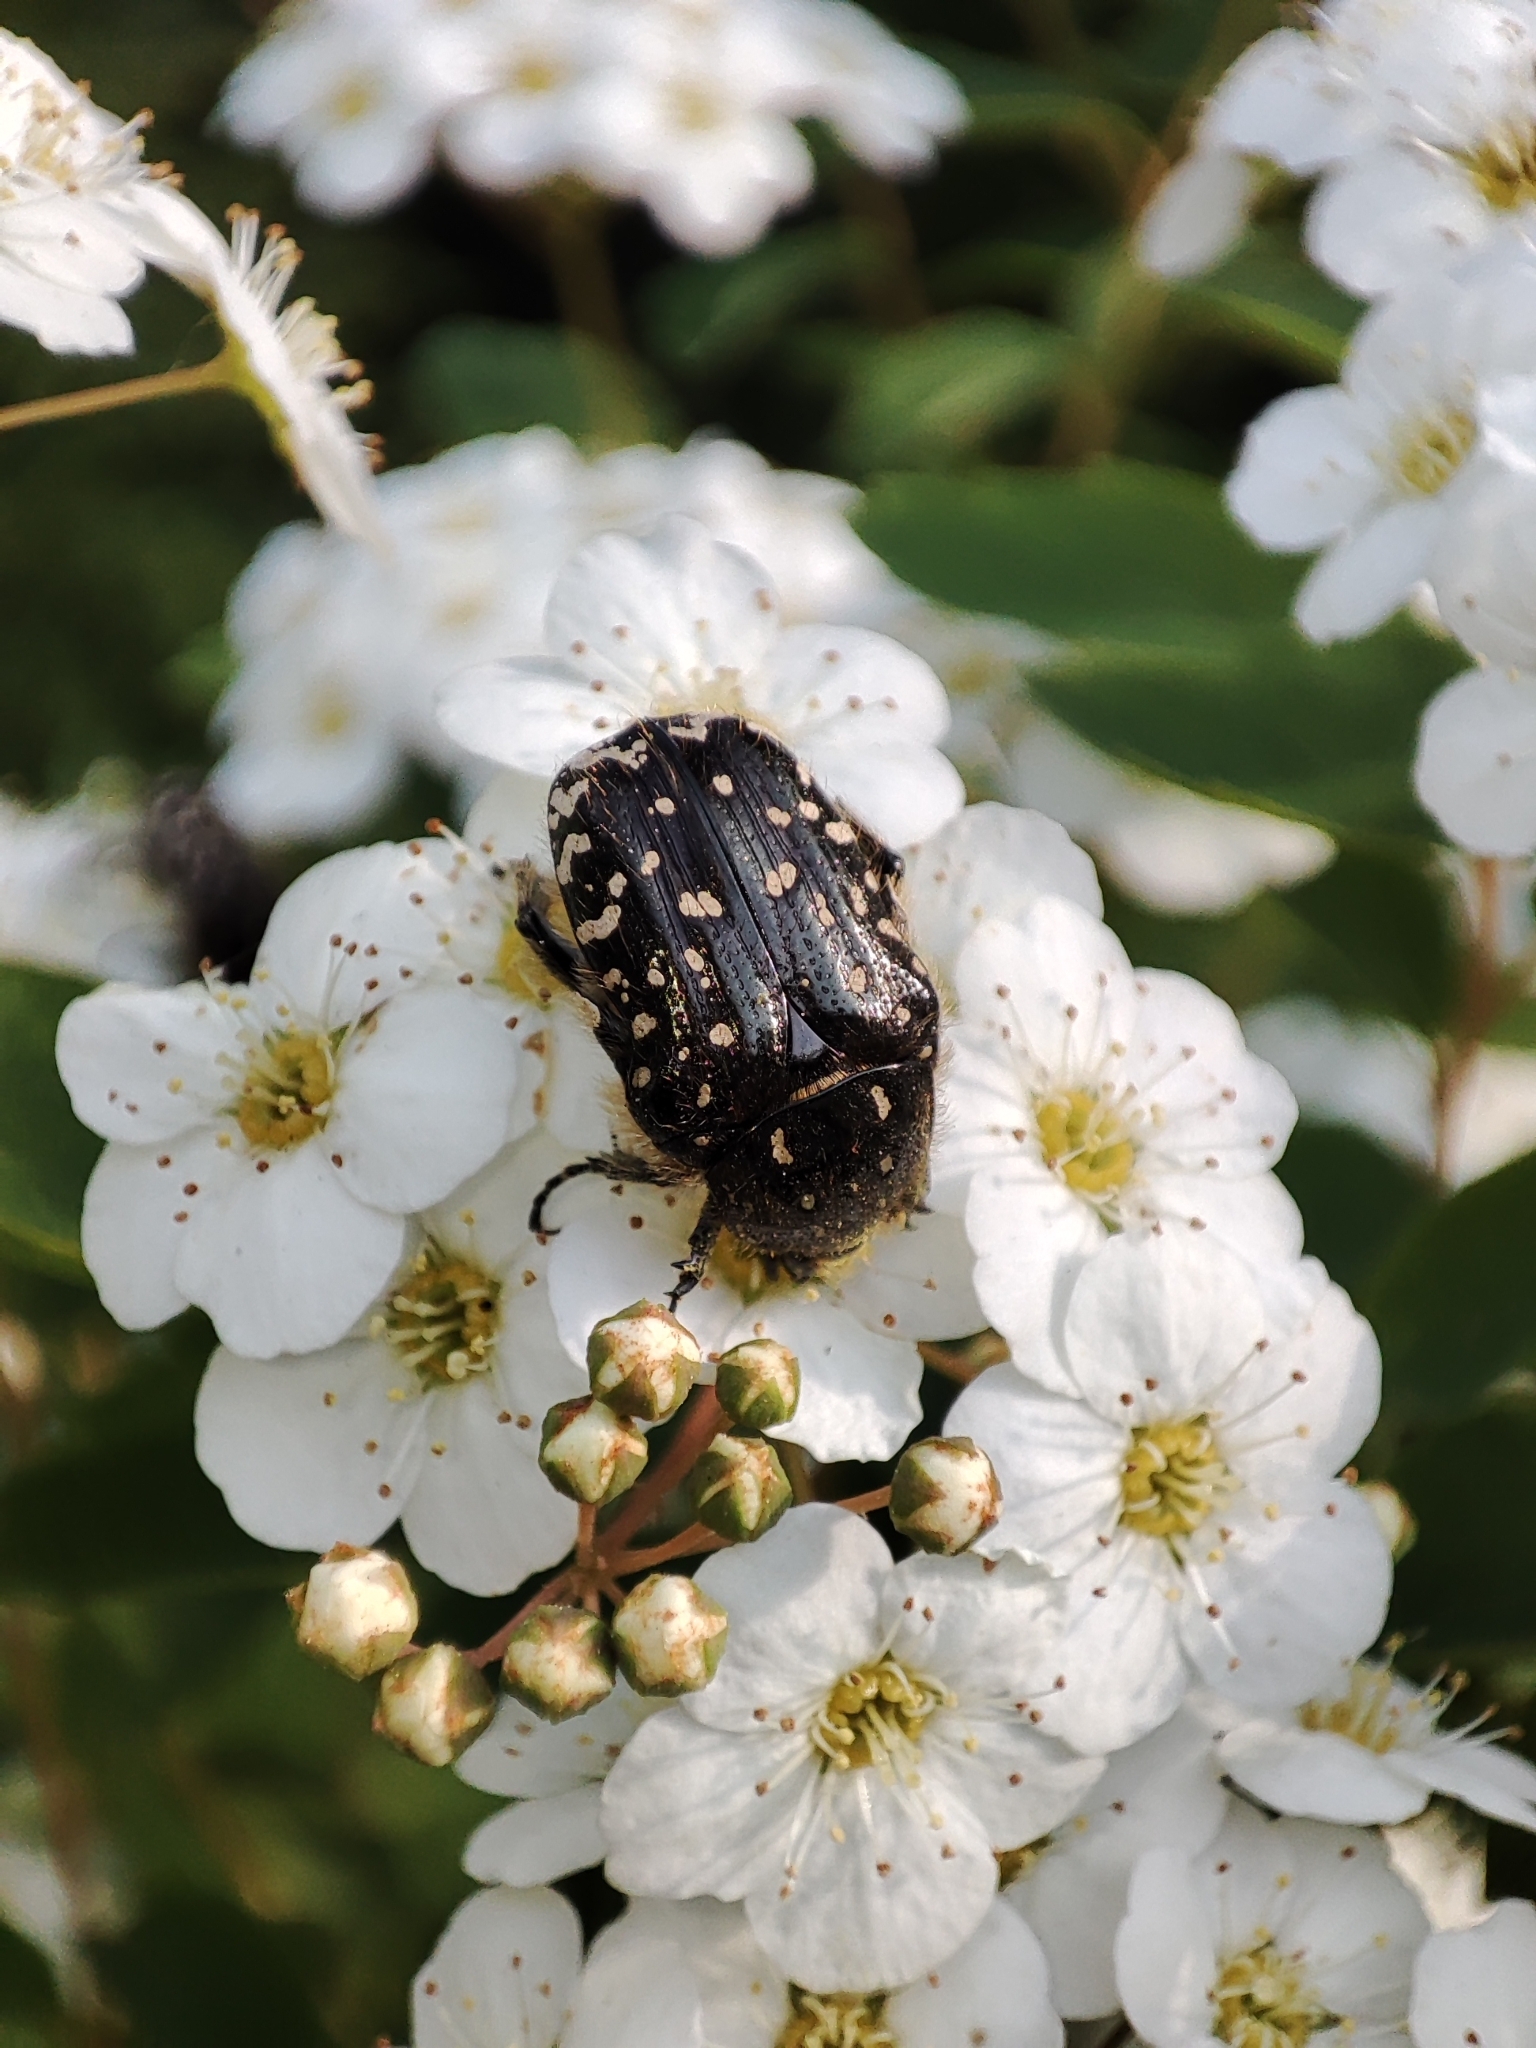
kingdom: Animalia
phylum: Arthropoda
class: Insecta
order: Coleoptera
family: Scarabaeidae
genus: Oxythyrea
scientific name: Oxythyrea funesta
